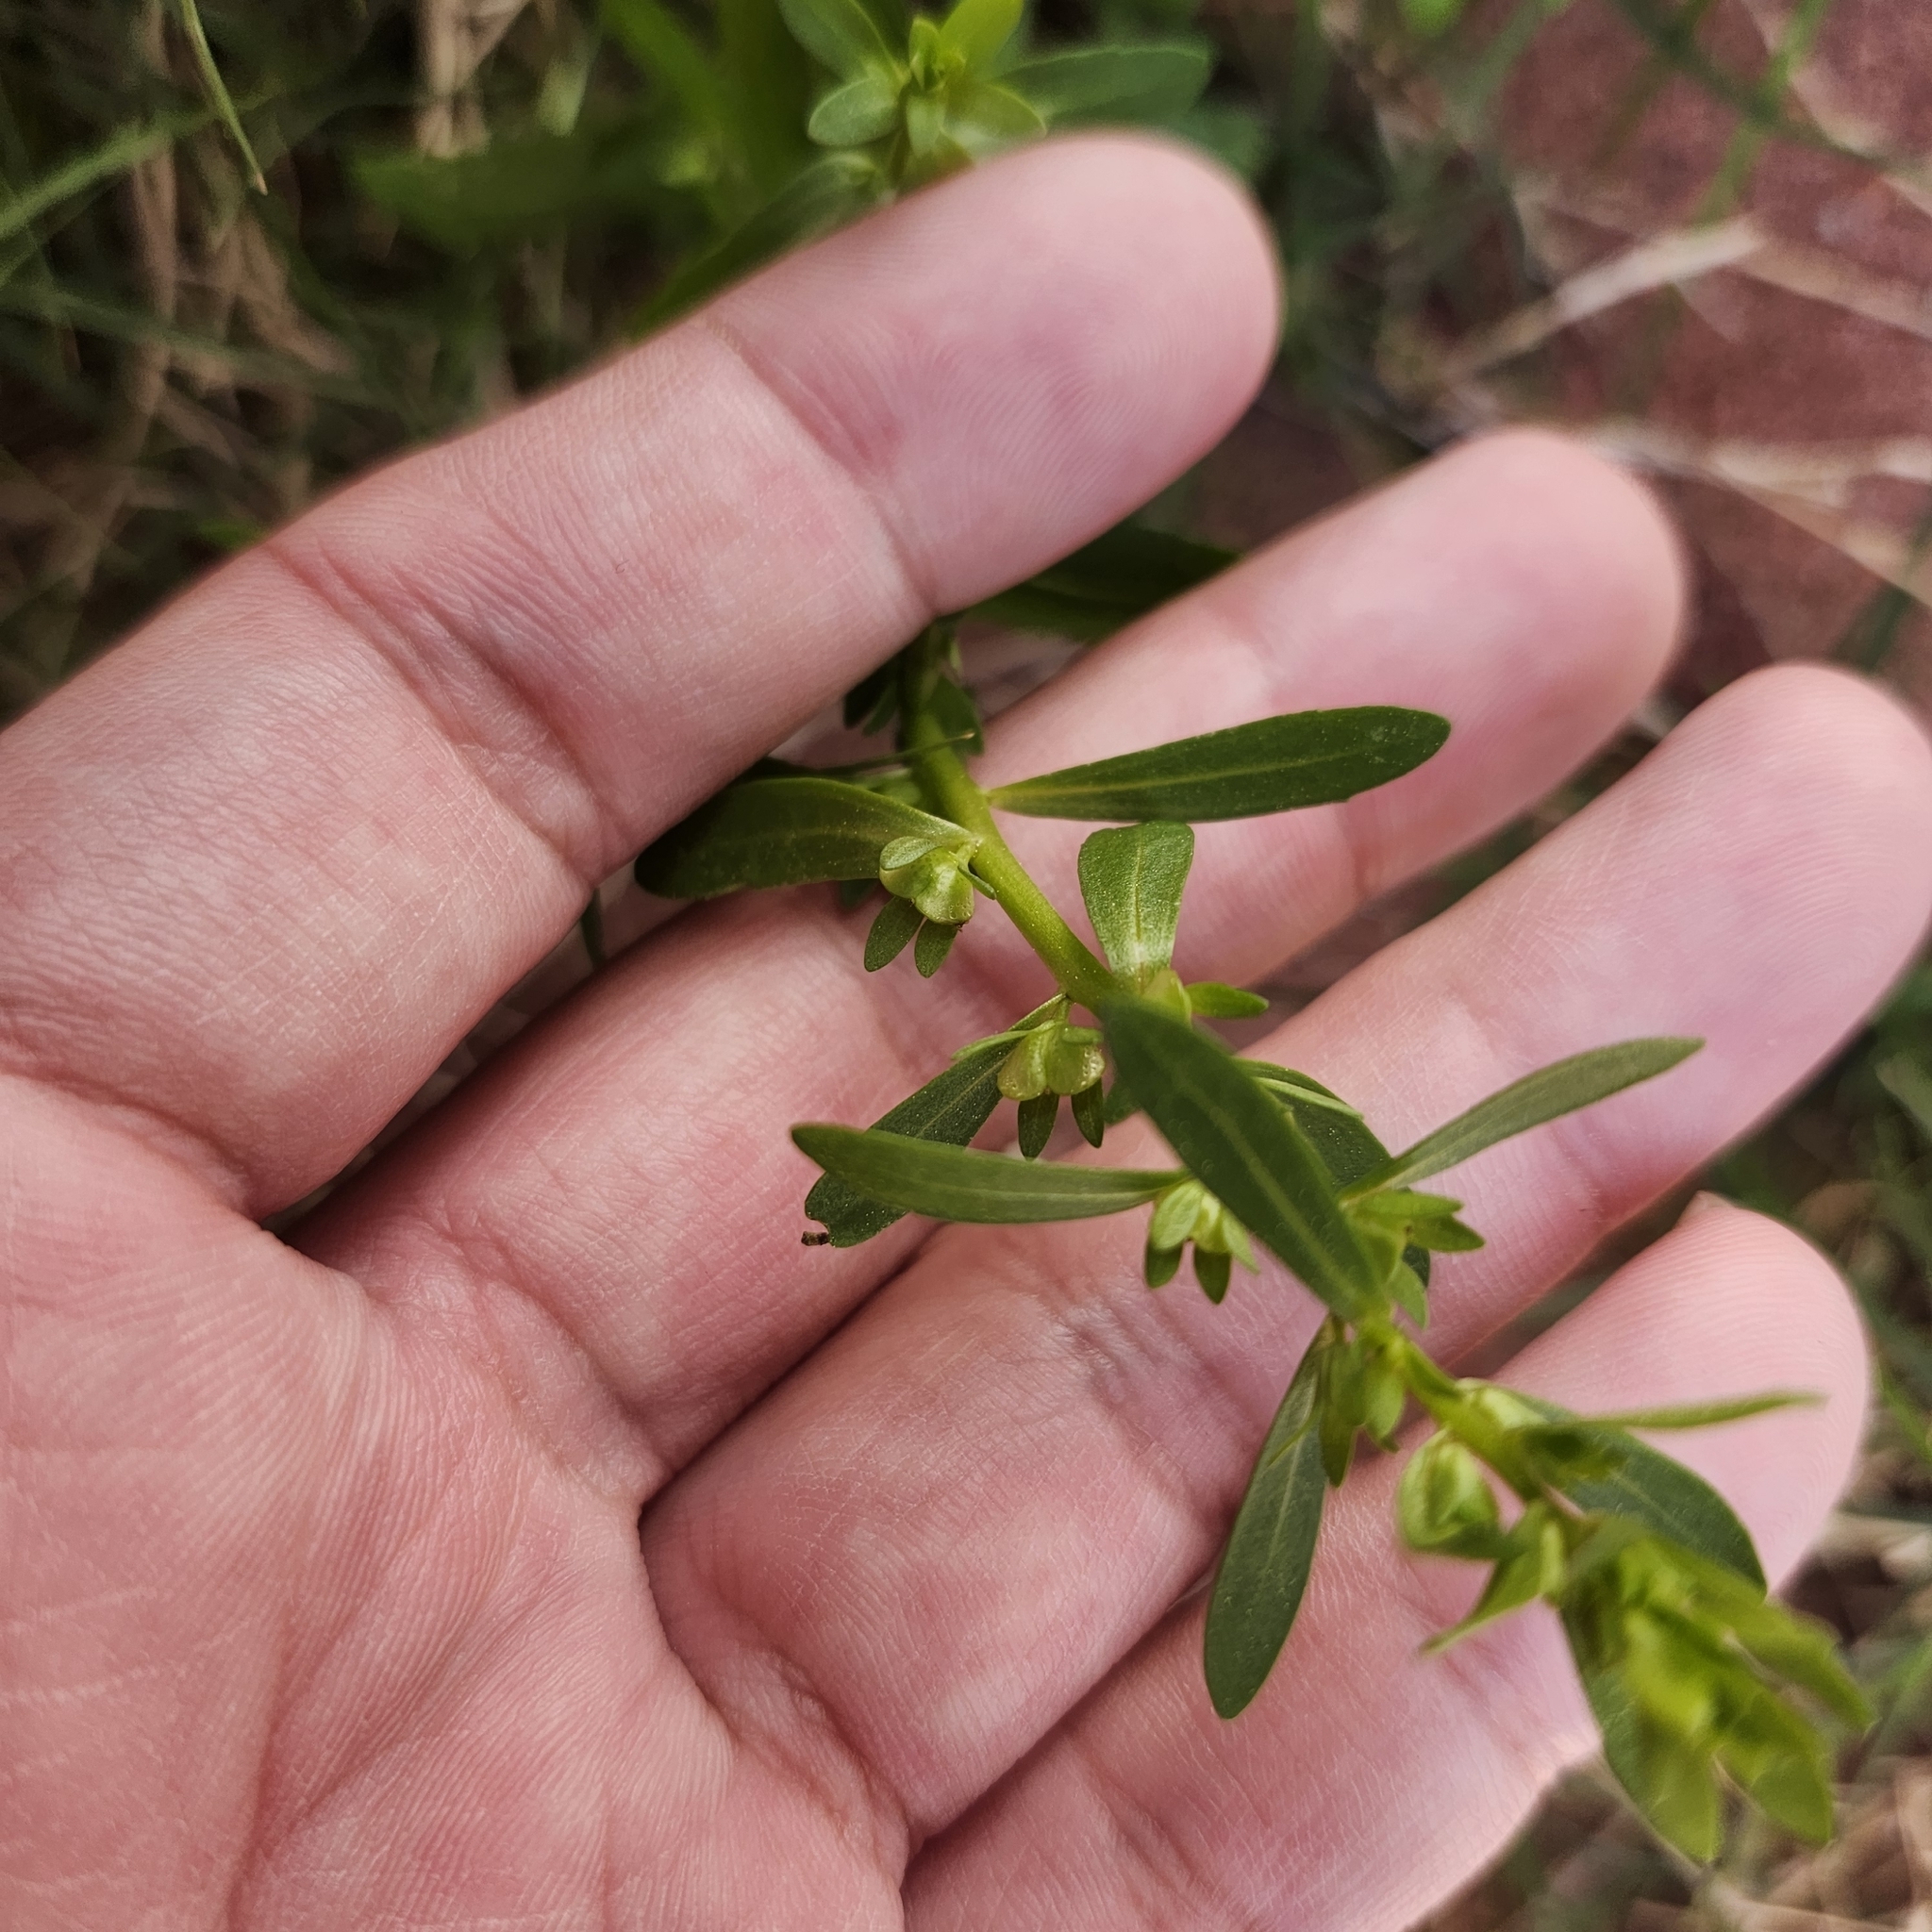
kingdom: Plantae
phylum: Tracheophyta
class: Magnoliopsida
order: Lamiales
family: Plantaginaceae
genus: Veronica
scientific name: Veronica peregrina
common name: Neckweed
